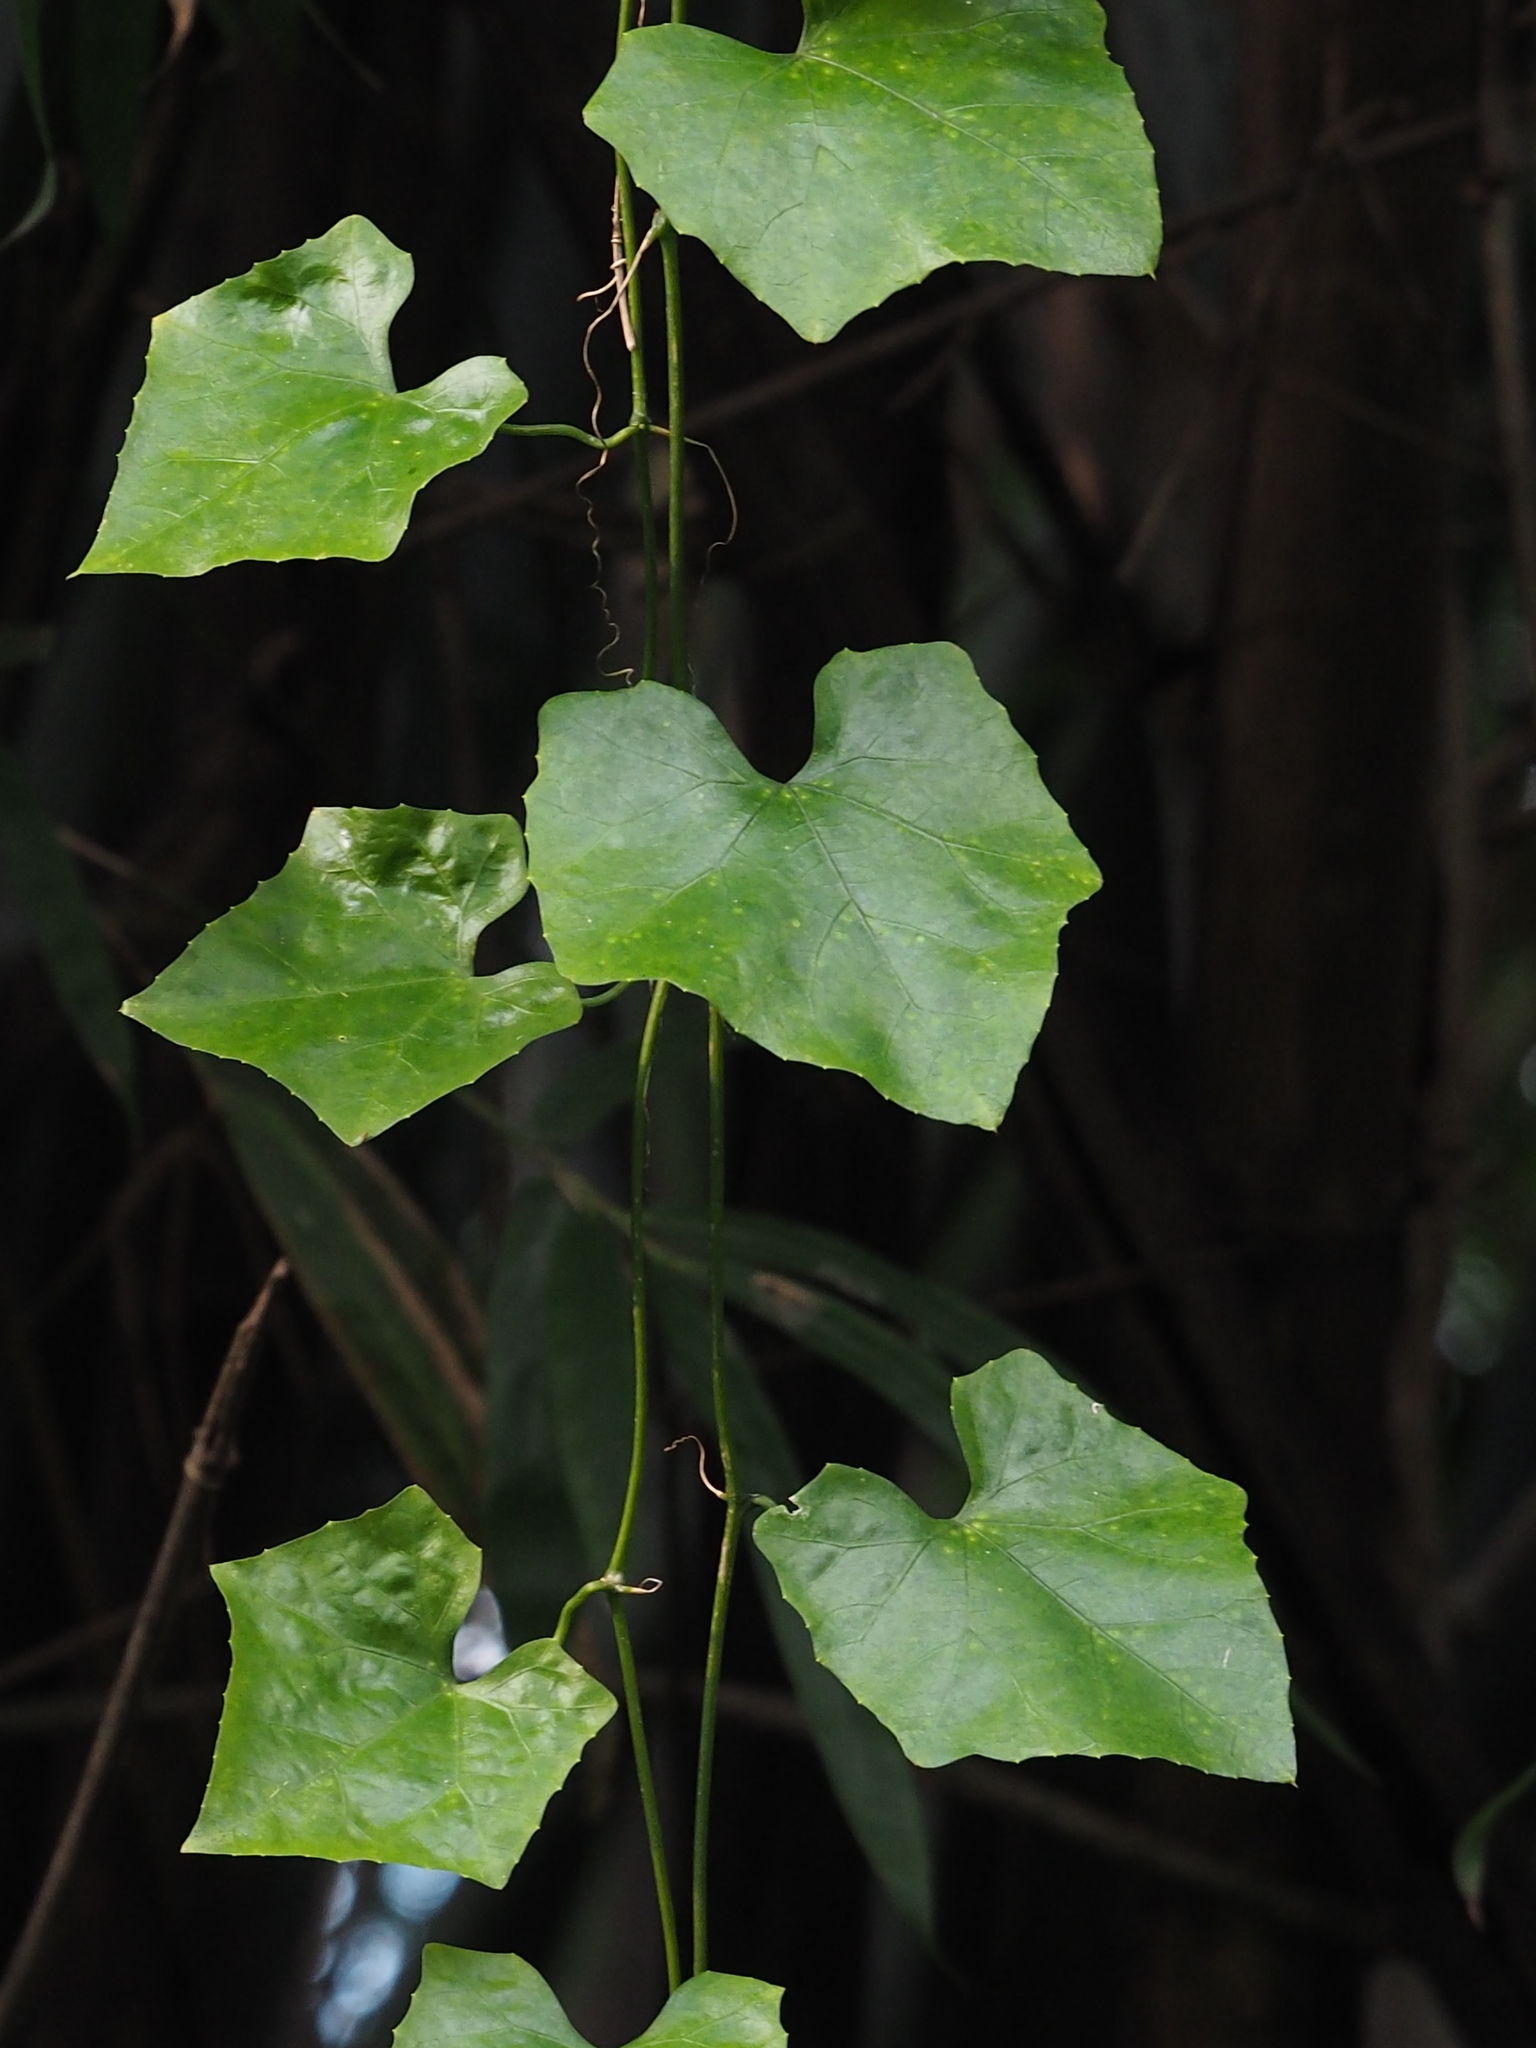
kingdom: Plantae
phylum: Tracheophyta
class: Magnoliopsida
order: Cucurbitales
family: Cucurbitaceae
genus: Melothria
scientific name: Melothria pendula
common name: Creeping-cucumber
